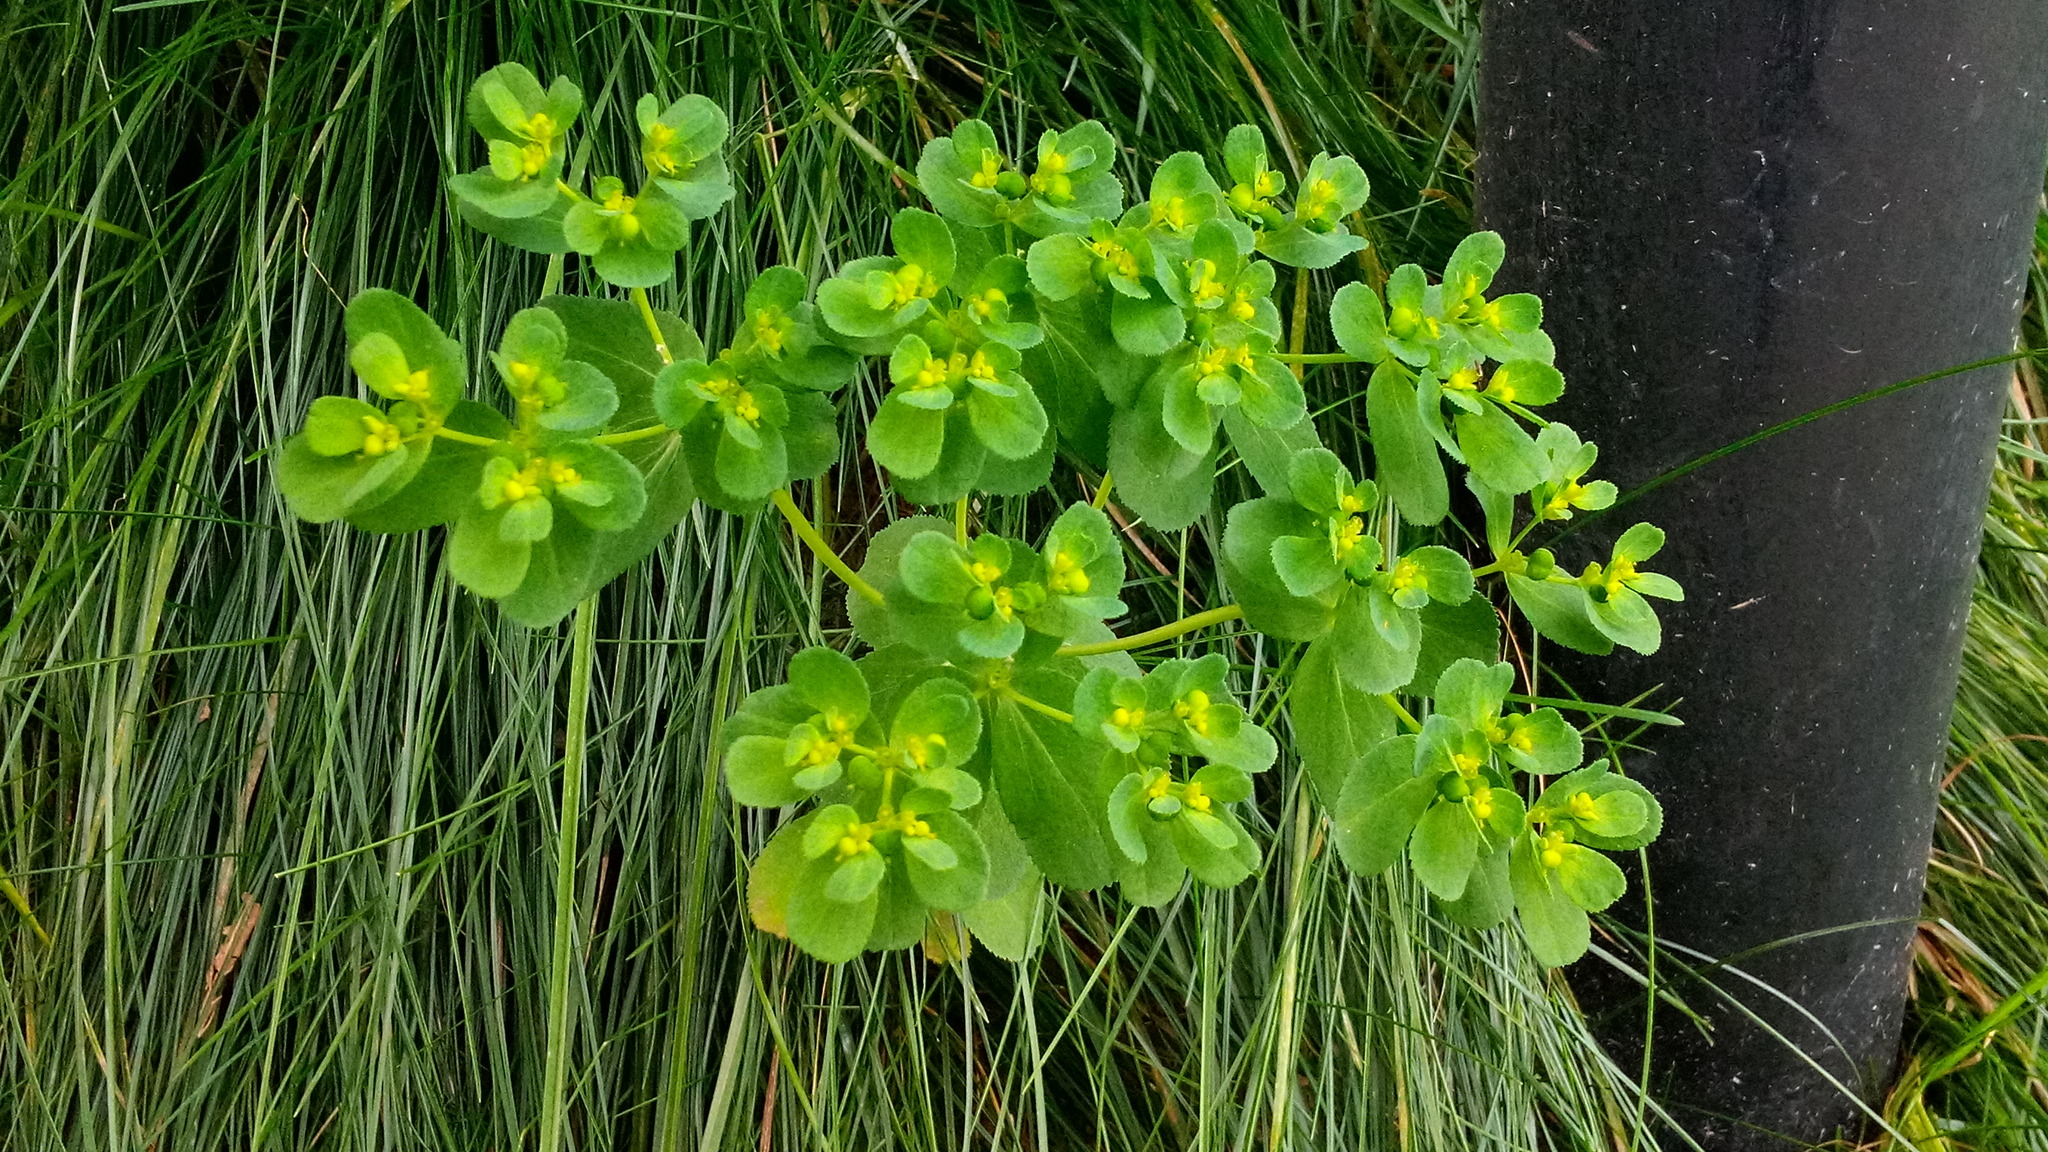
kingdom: Plantae
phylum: Tracheophyta
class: Magnoliopsida
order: Malpighiales
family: Euphorbiaceae
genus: Euphorbia
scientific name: Euphorbia helioscopia
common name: Sun spurge
